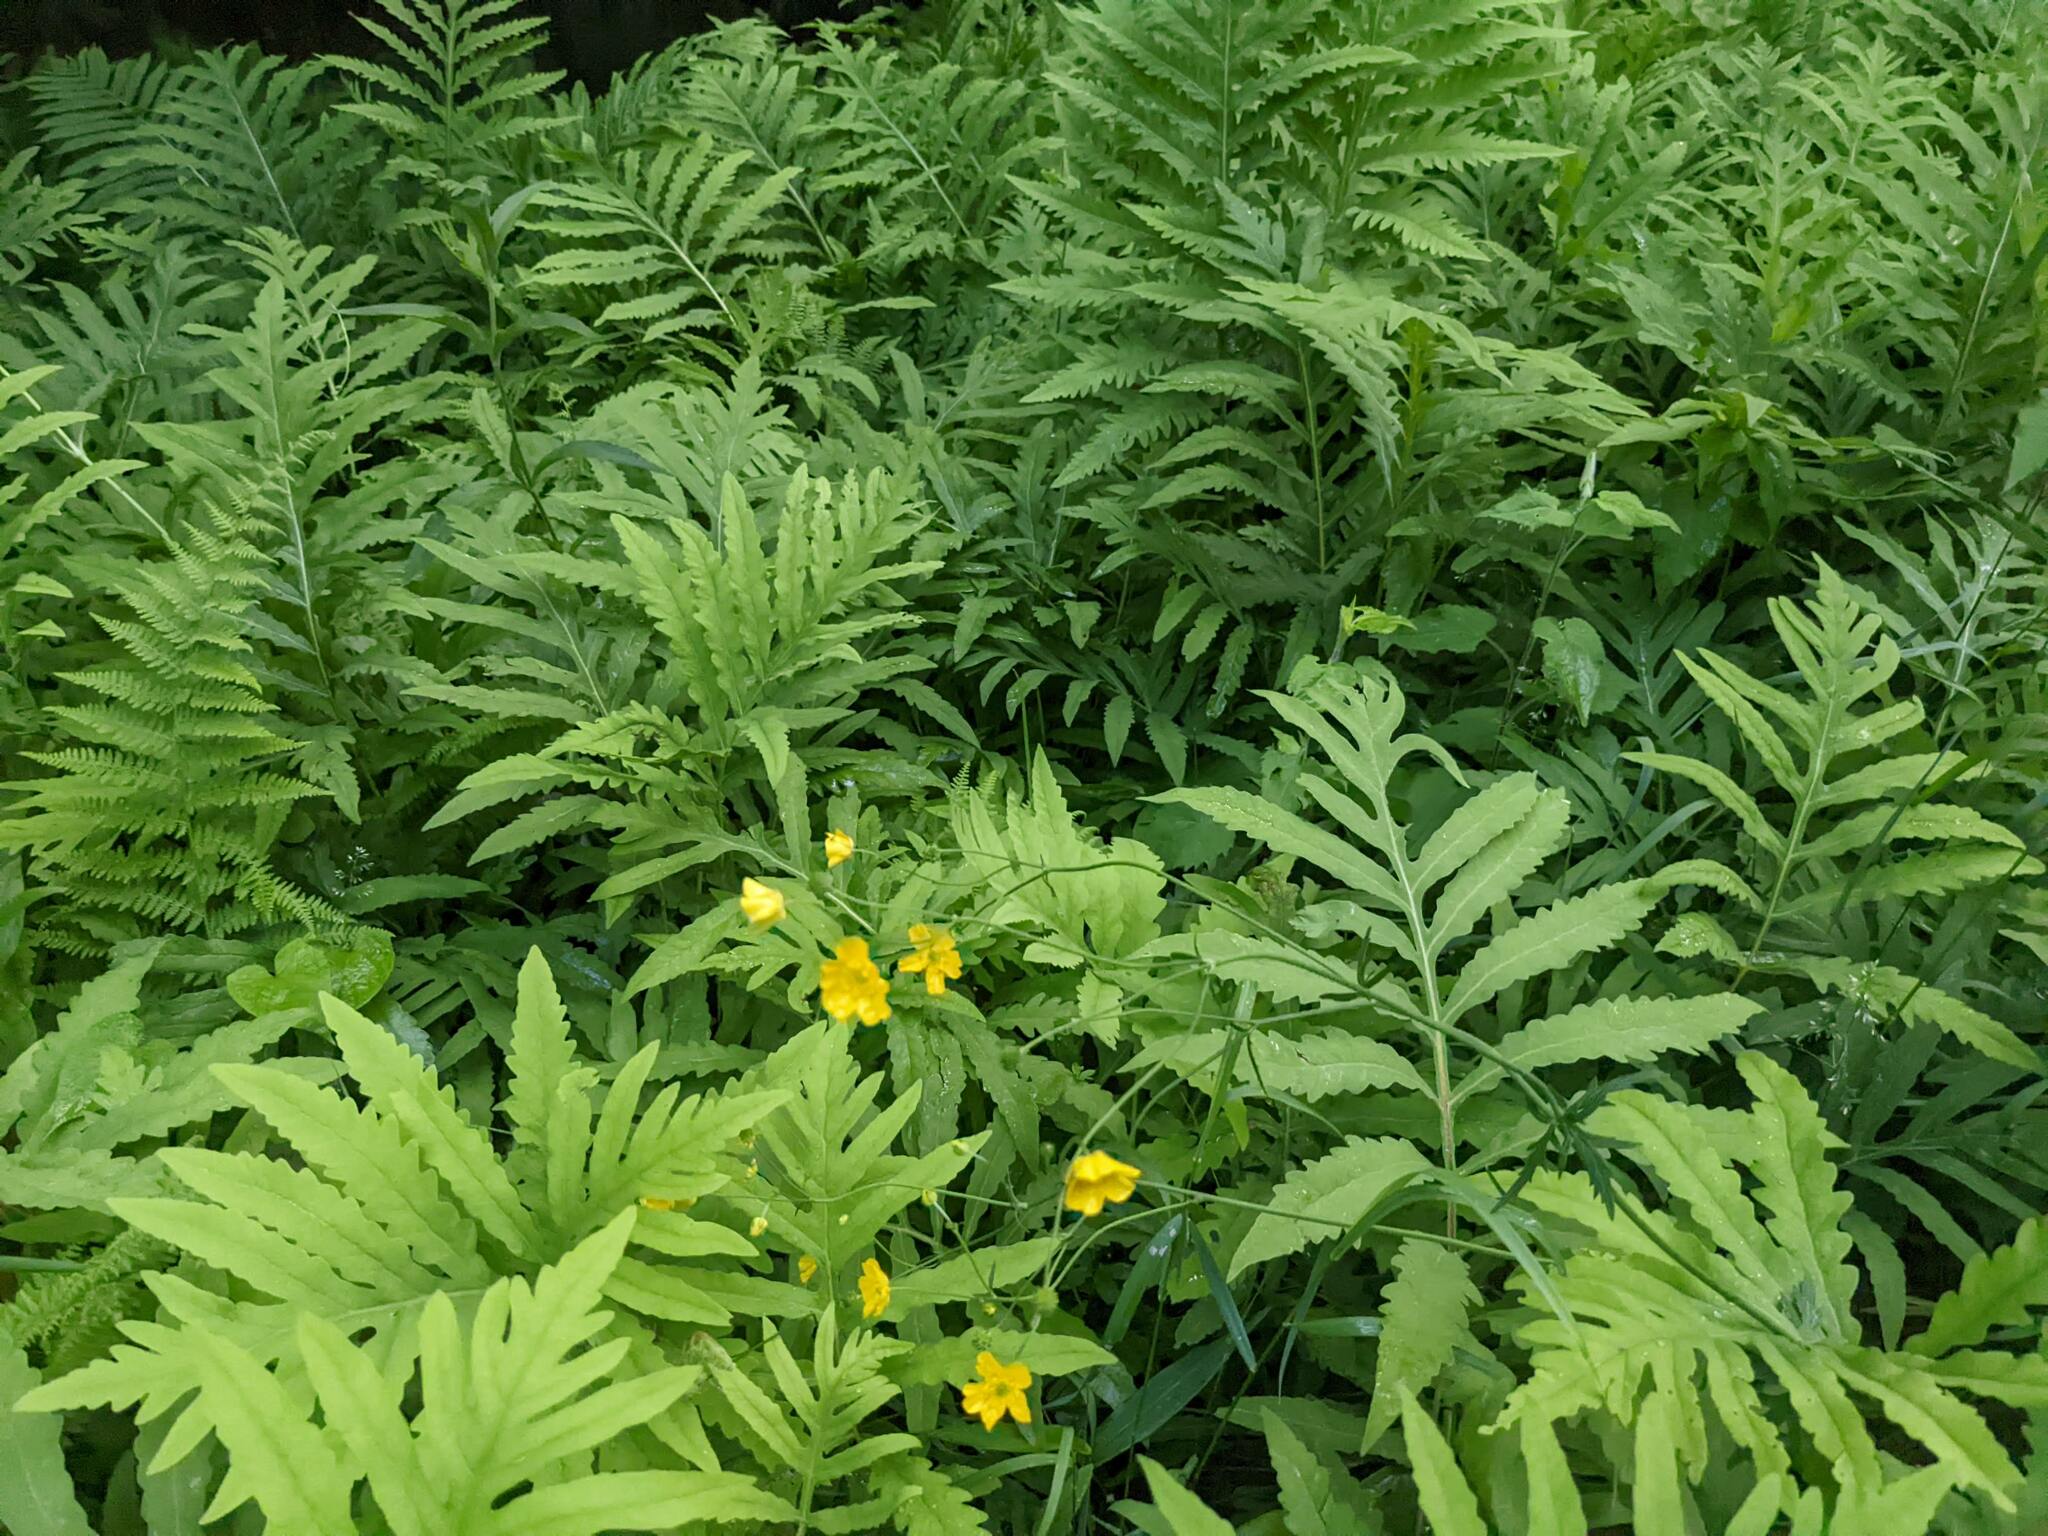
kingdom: Plantae
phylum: Tracheophyta
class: Polypodiopsida
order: Polypodiales
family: Onocleaceae
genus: Onoclea
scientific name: Onoclea sensibilis
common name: Sensitive fern
